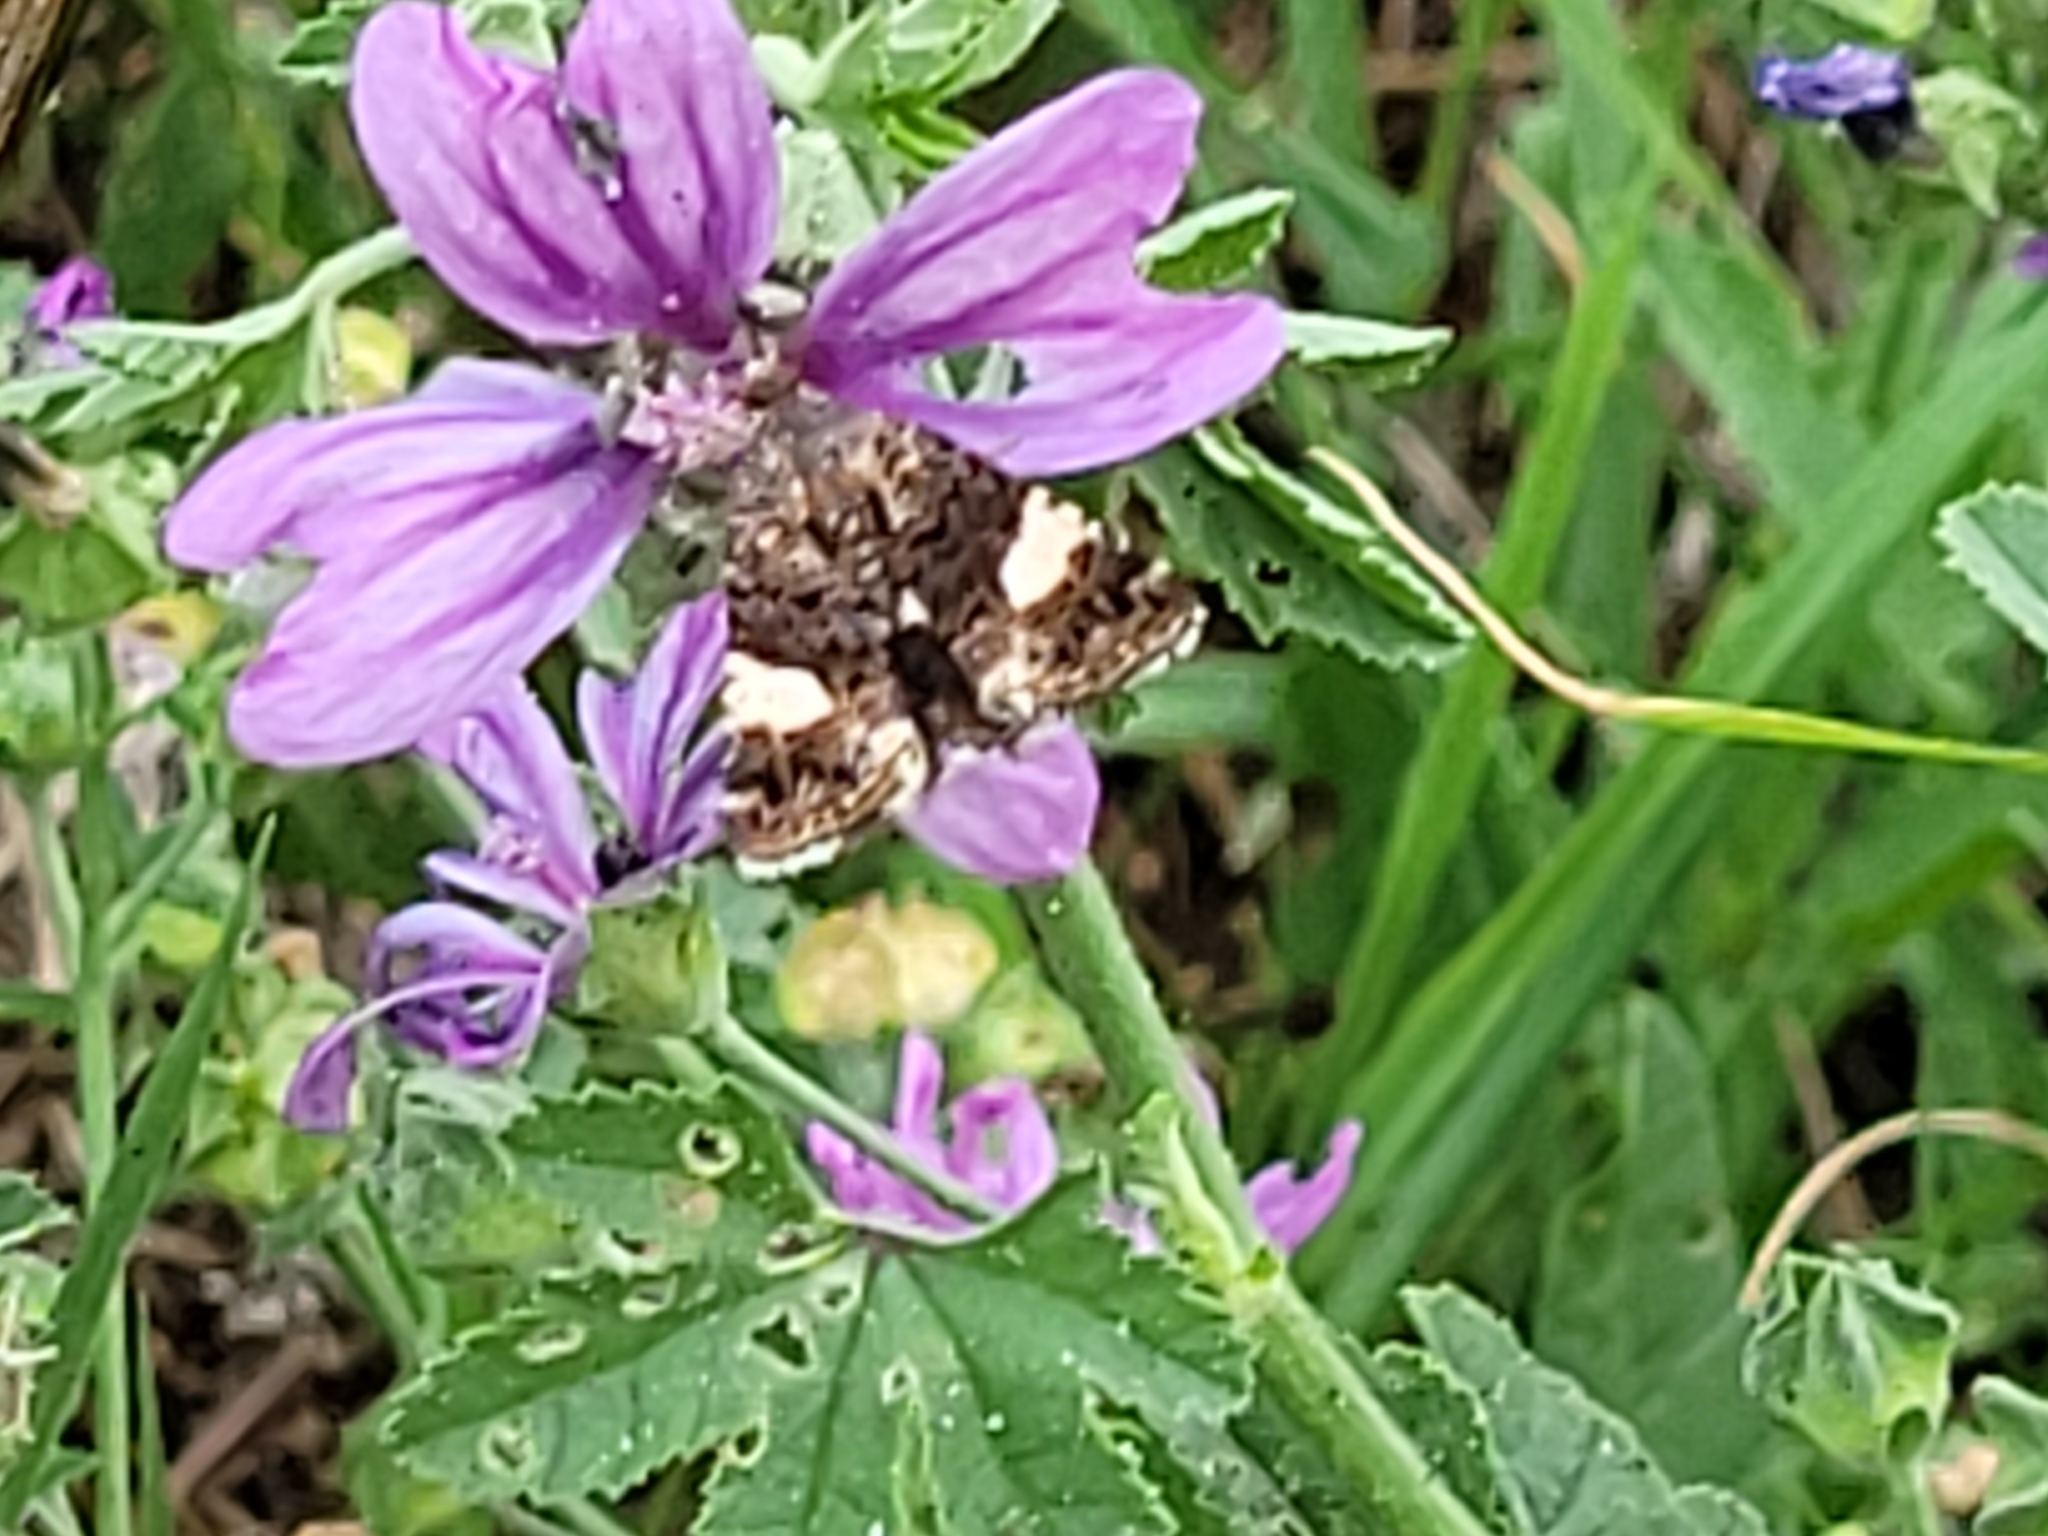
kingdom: Animalia
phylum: Arthropoda
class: Insecta
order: Lepidoptera
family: Erebidae
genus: Tyta
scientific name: Tyta luctuosa
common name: Four-spotted
